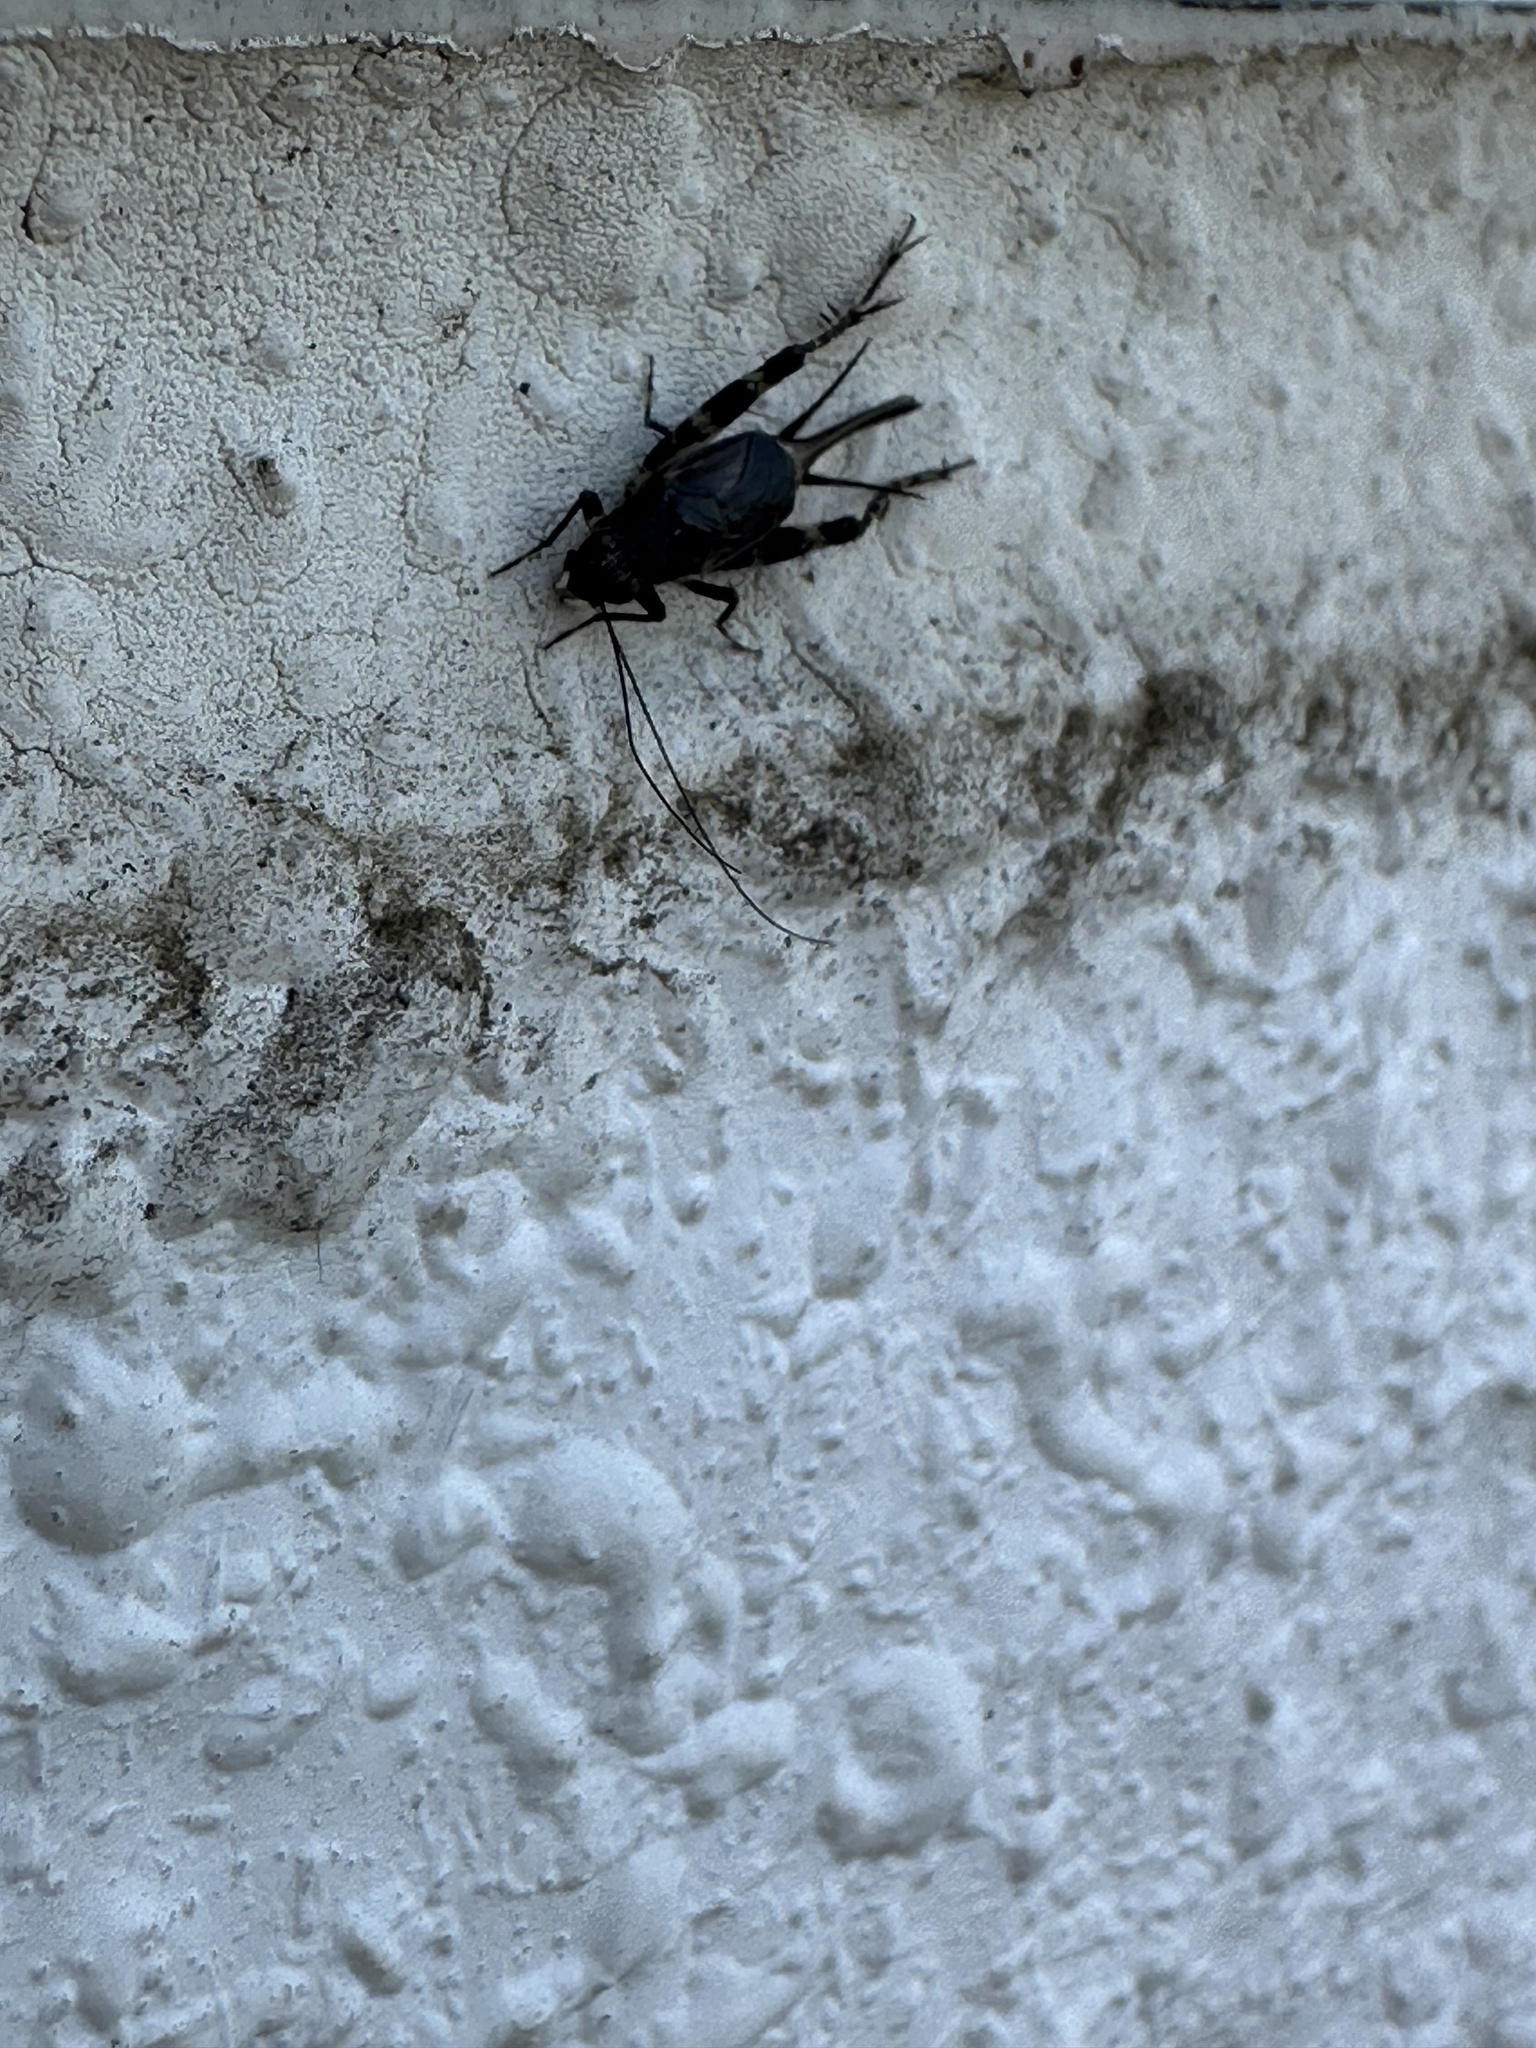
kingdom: Animalia
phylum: Arthropoda
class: Insecta
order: Orthoptera
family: Trigonidiidae
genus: Dianemobius
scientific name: Dianemobius fascipes
